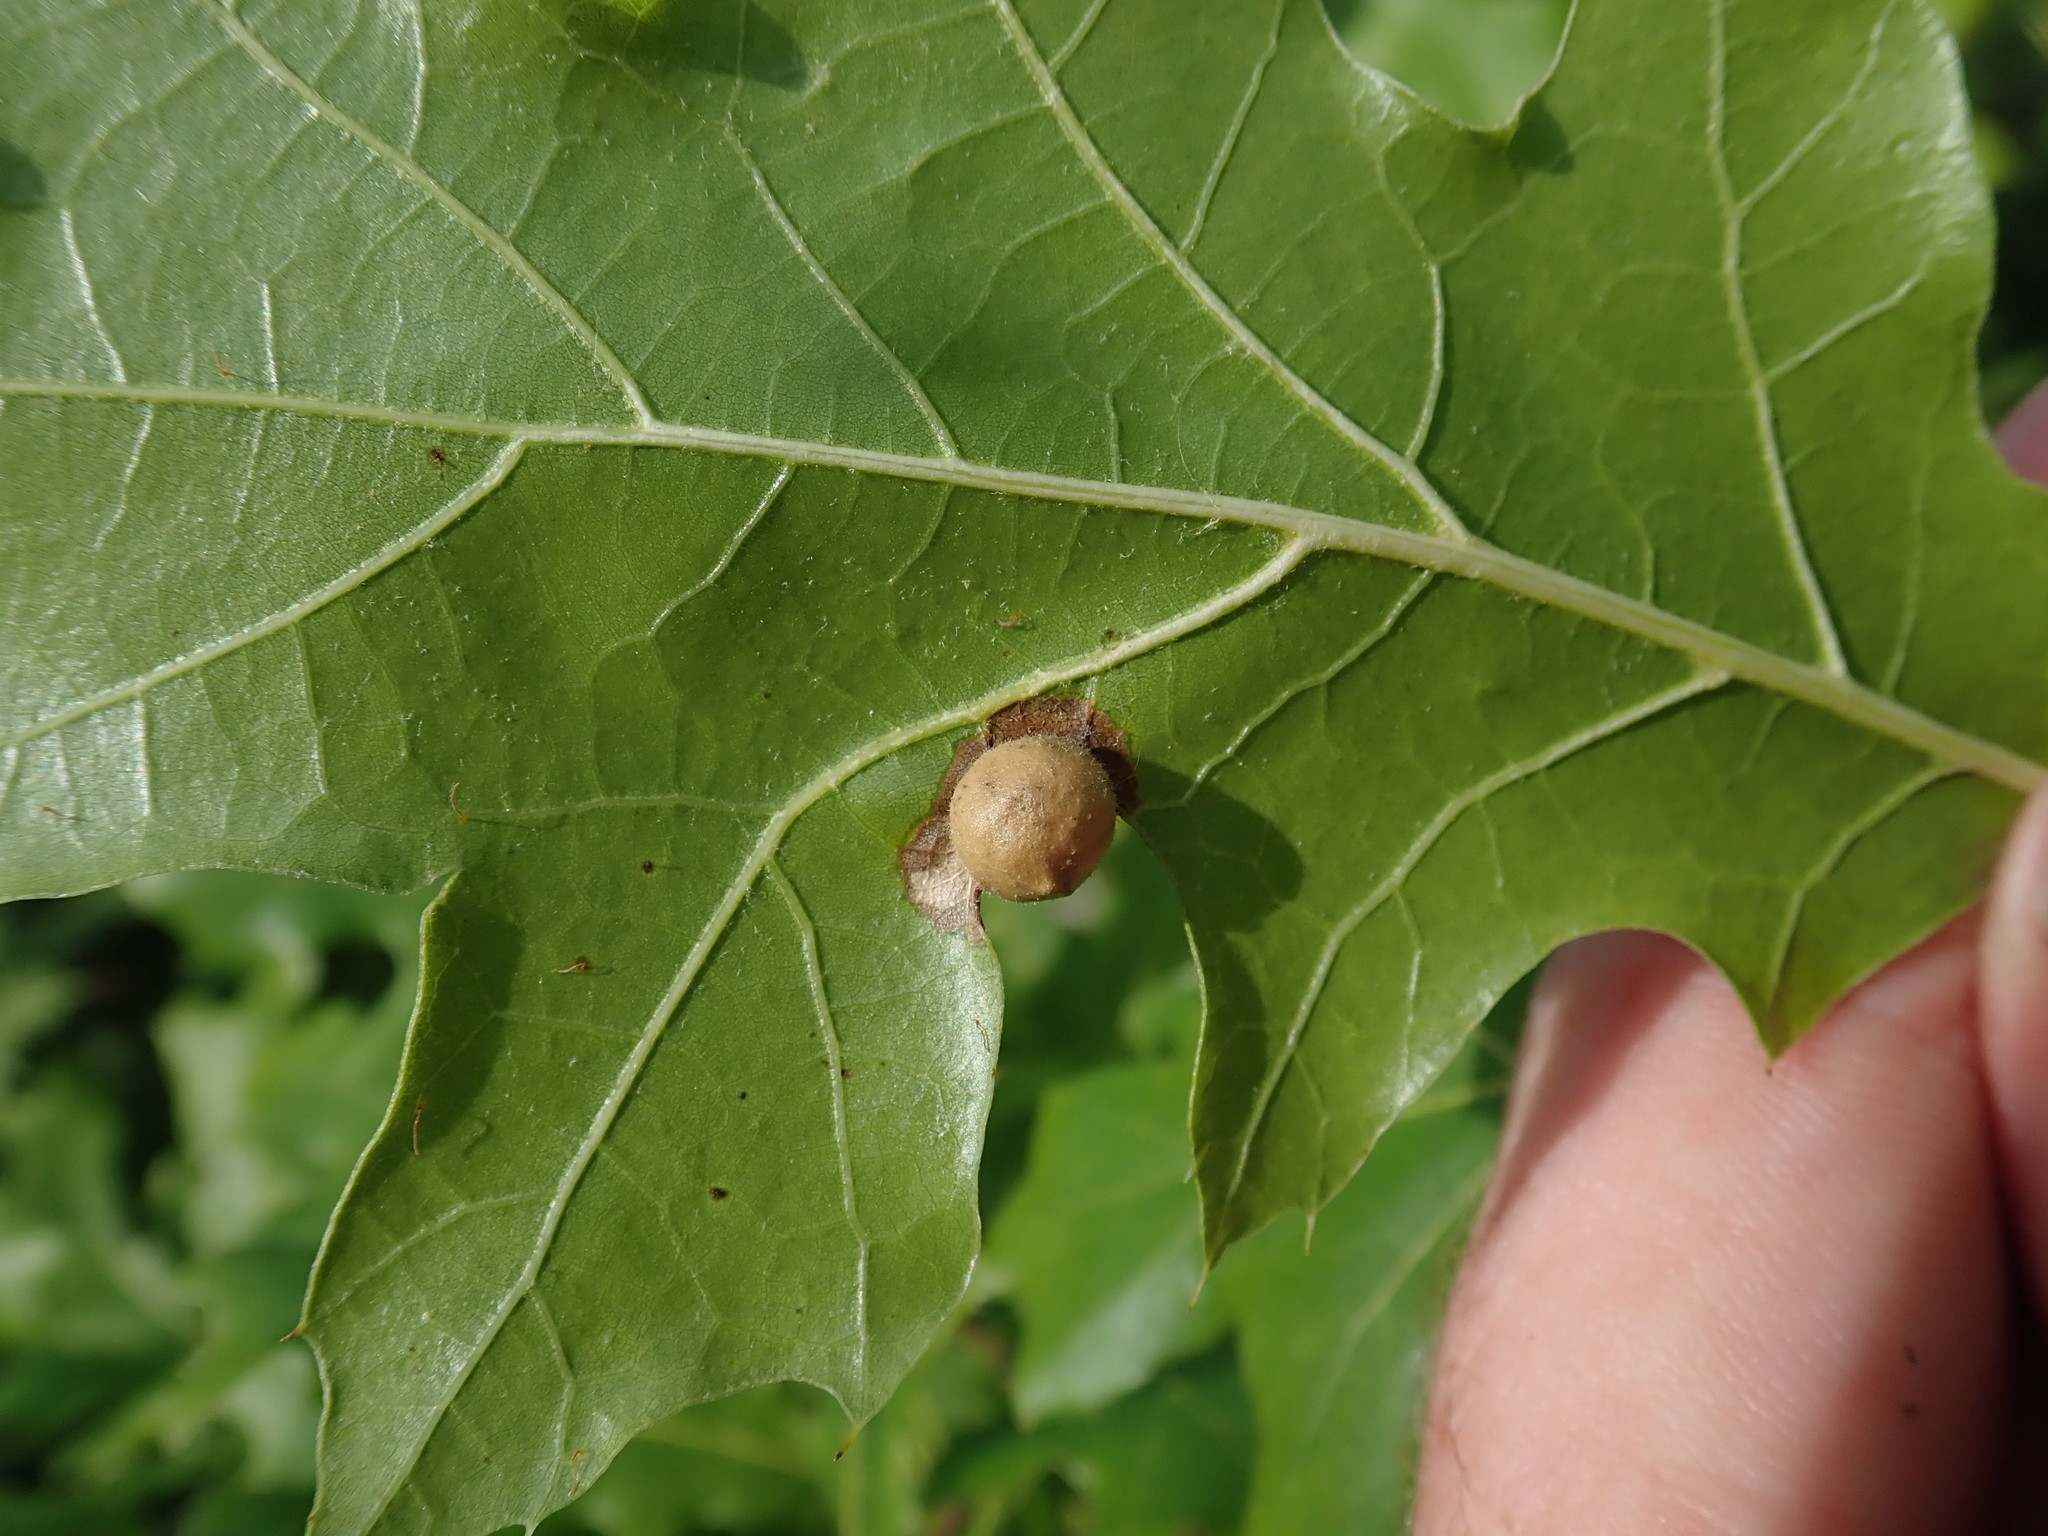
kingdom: Animalia
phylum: Arthropoda
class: Insecta
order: Hymenoptera
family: Cynipidae
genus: Amphibolips
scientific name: Amphibolips
